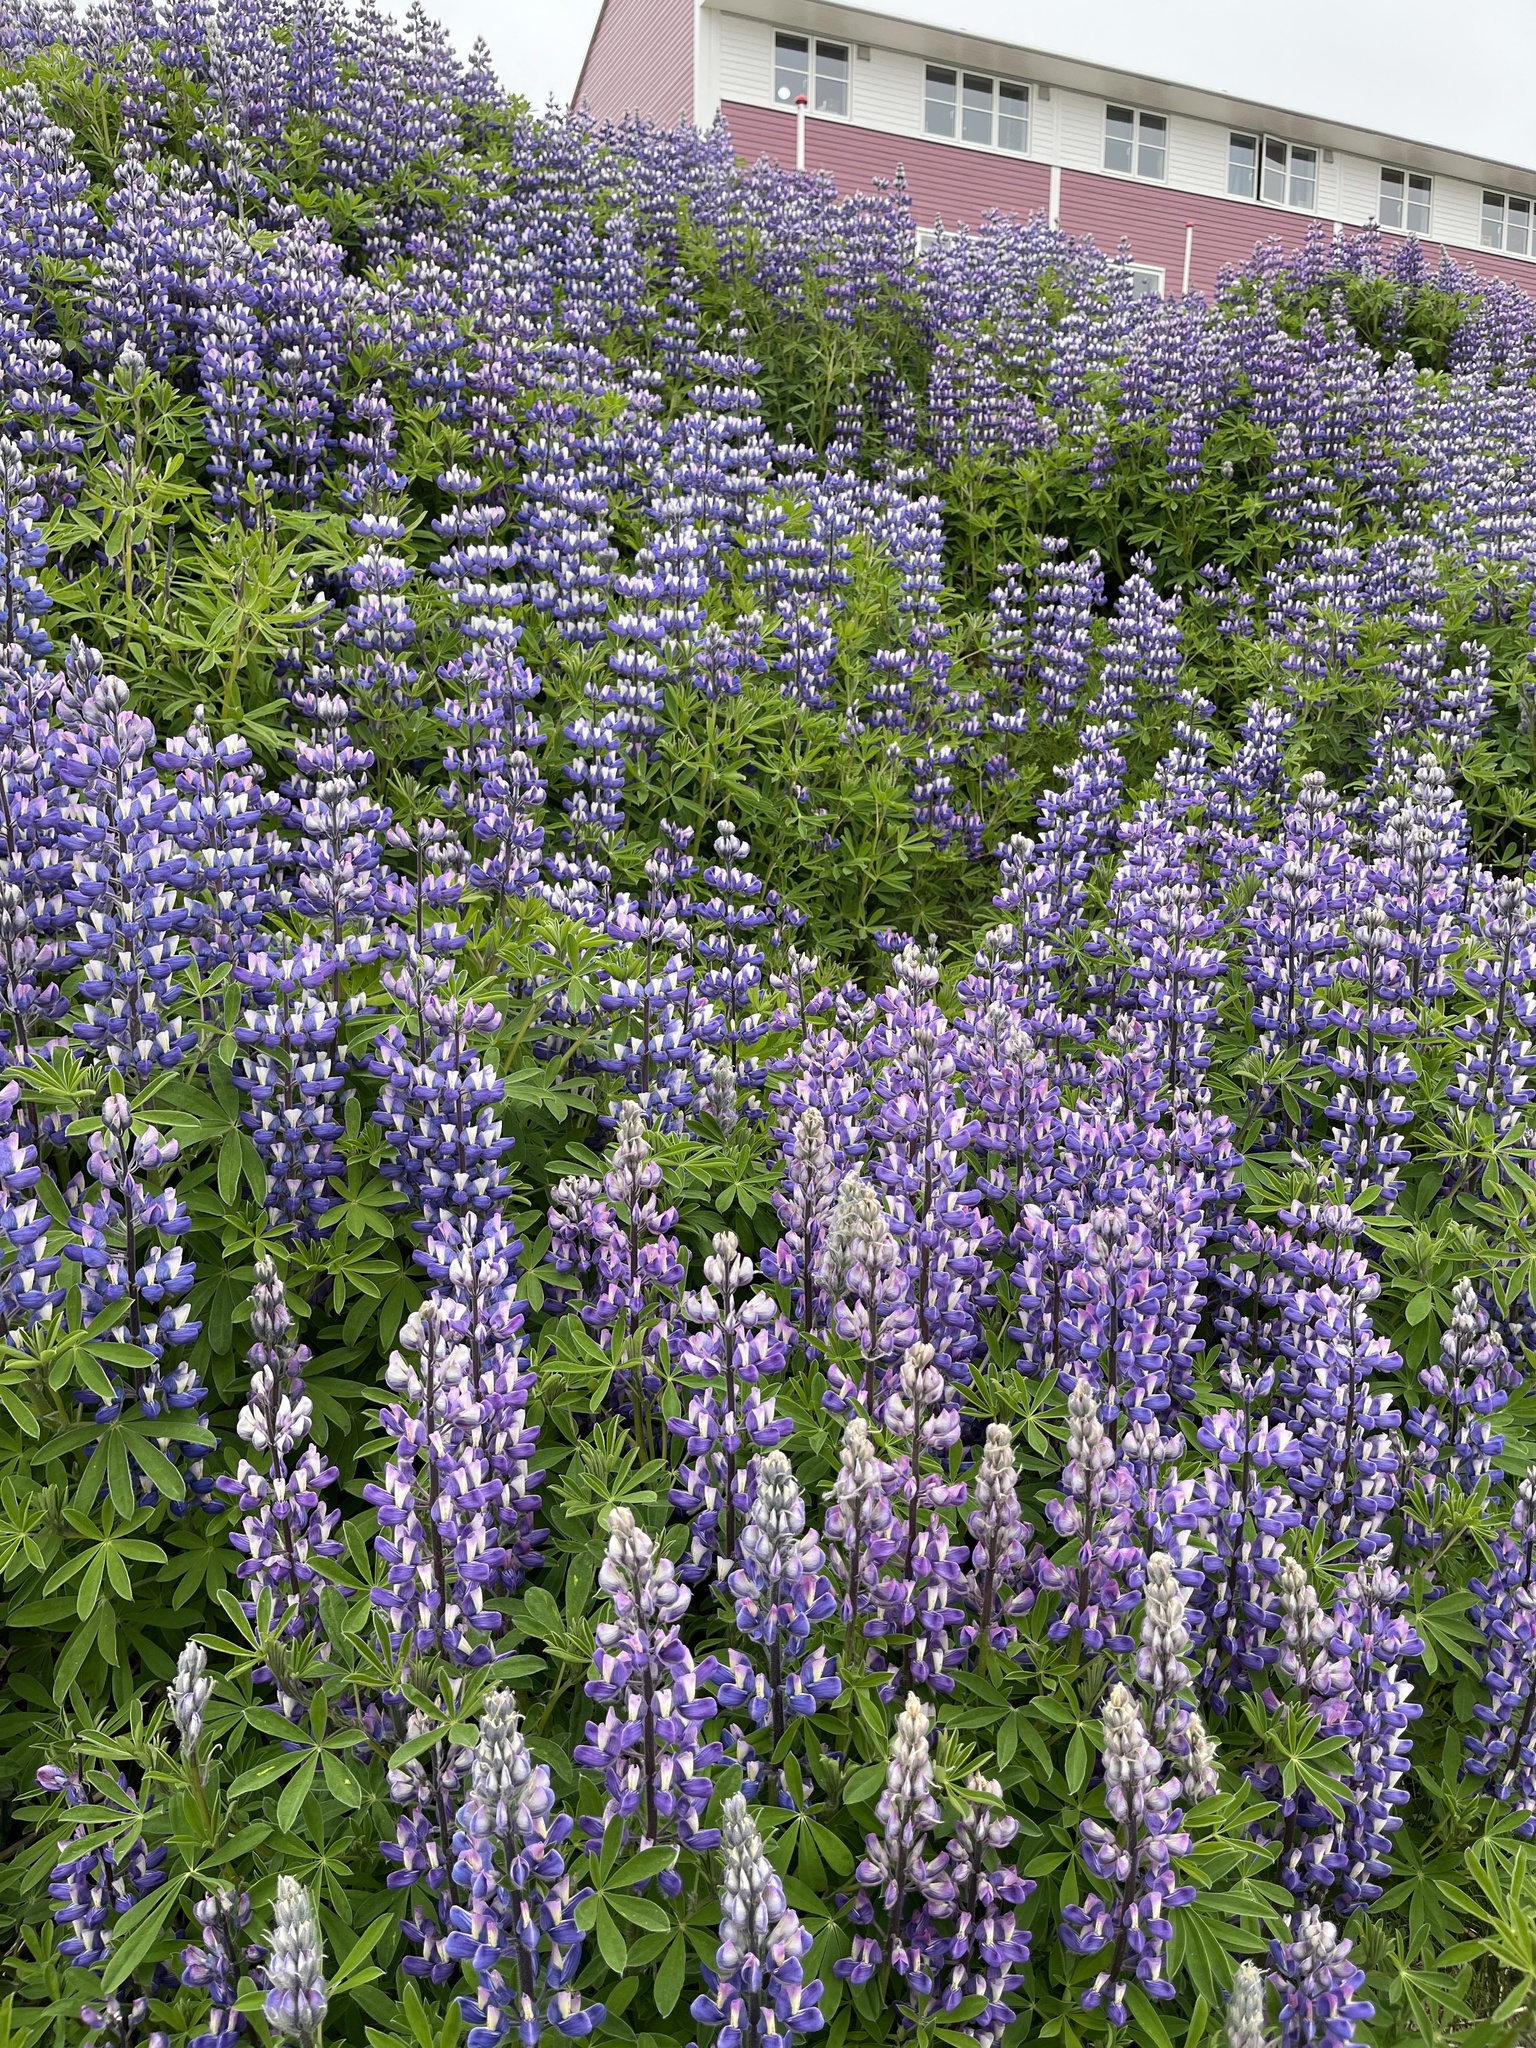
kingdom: Plantae
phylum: Tracheophyta
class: Magnoliopsida
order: Fabales
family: Fabaceae
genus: Lupinus
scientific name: Lupinus nootkatensis
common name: Nootka lupine
